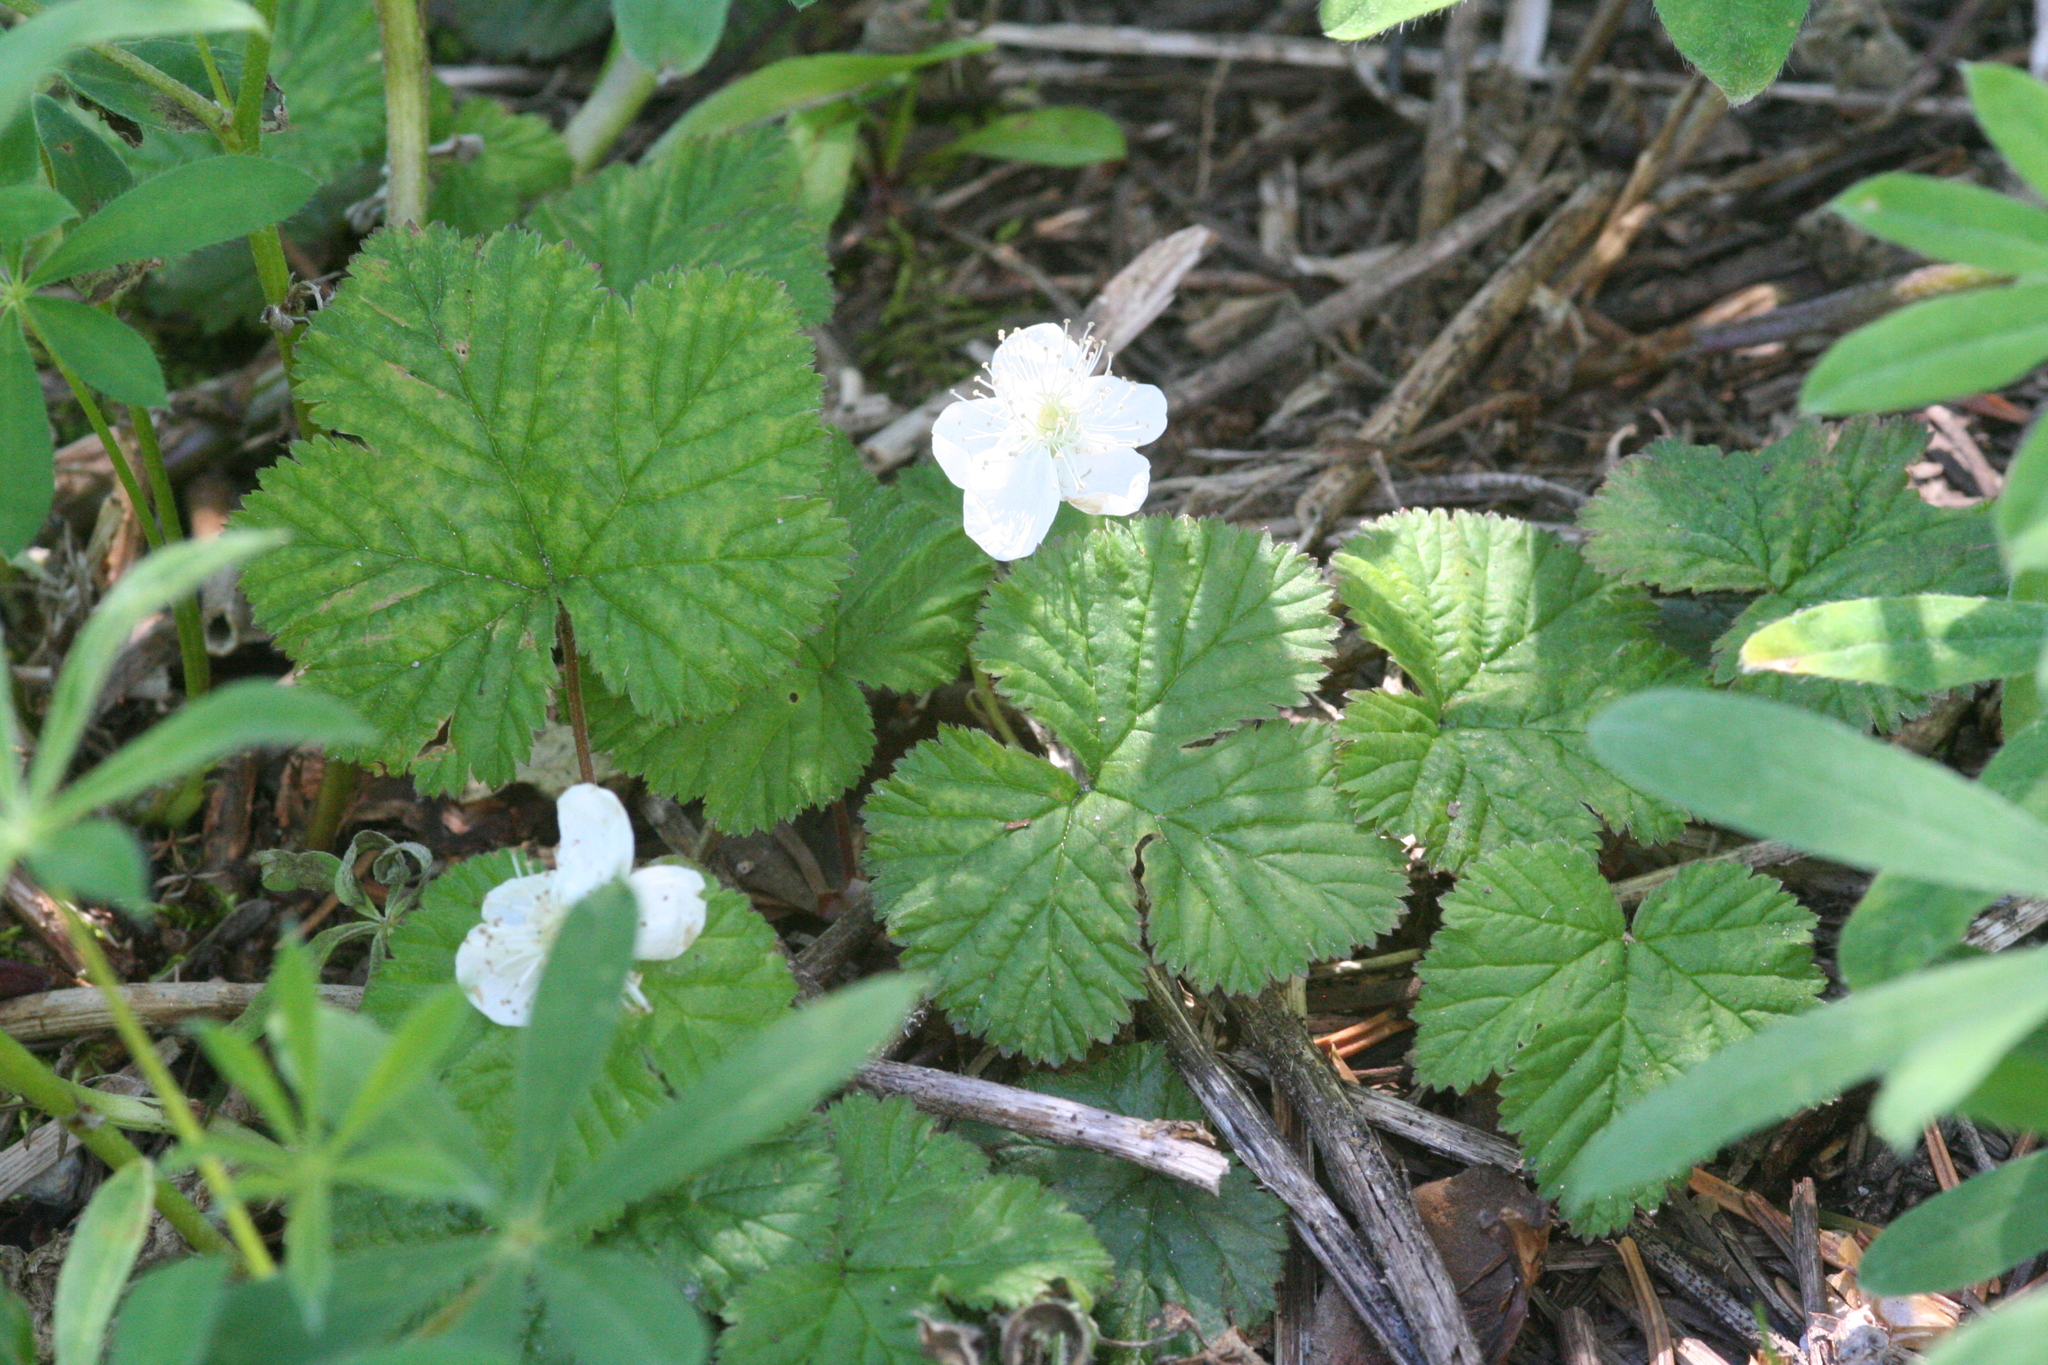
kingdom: Plantae
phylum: Tracheophyta
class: Magnoliopsida
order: Rosales
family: Rosaceae
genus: Rubus
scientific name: Rubus lasiococcus
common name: Dwarf bramble
